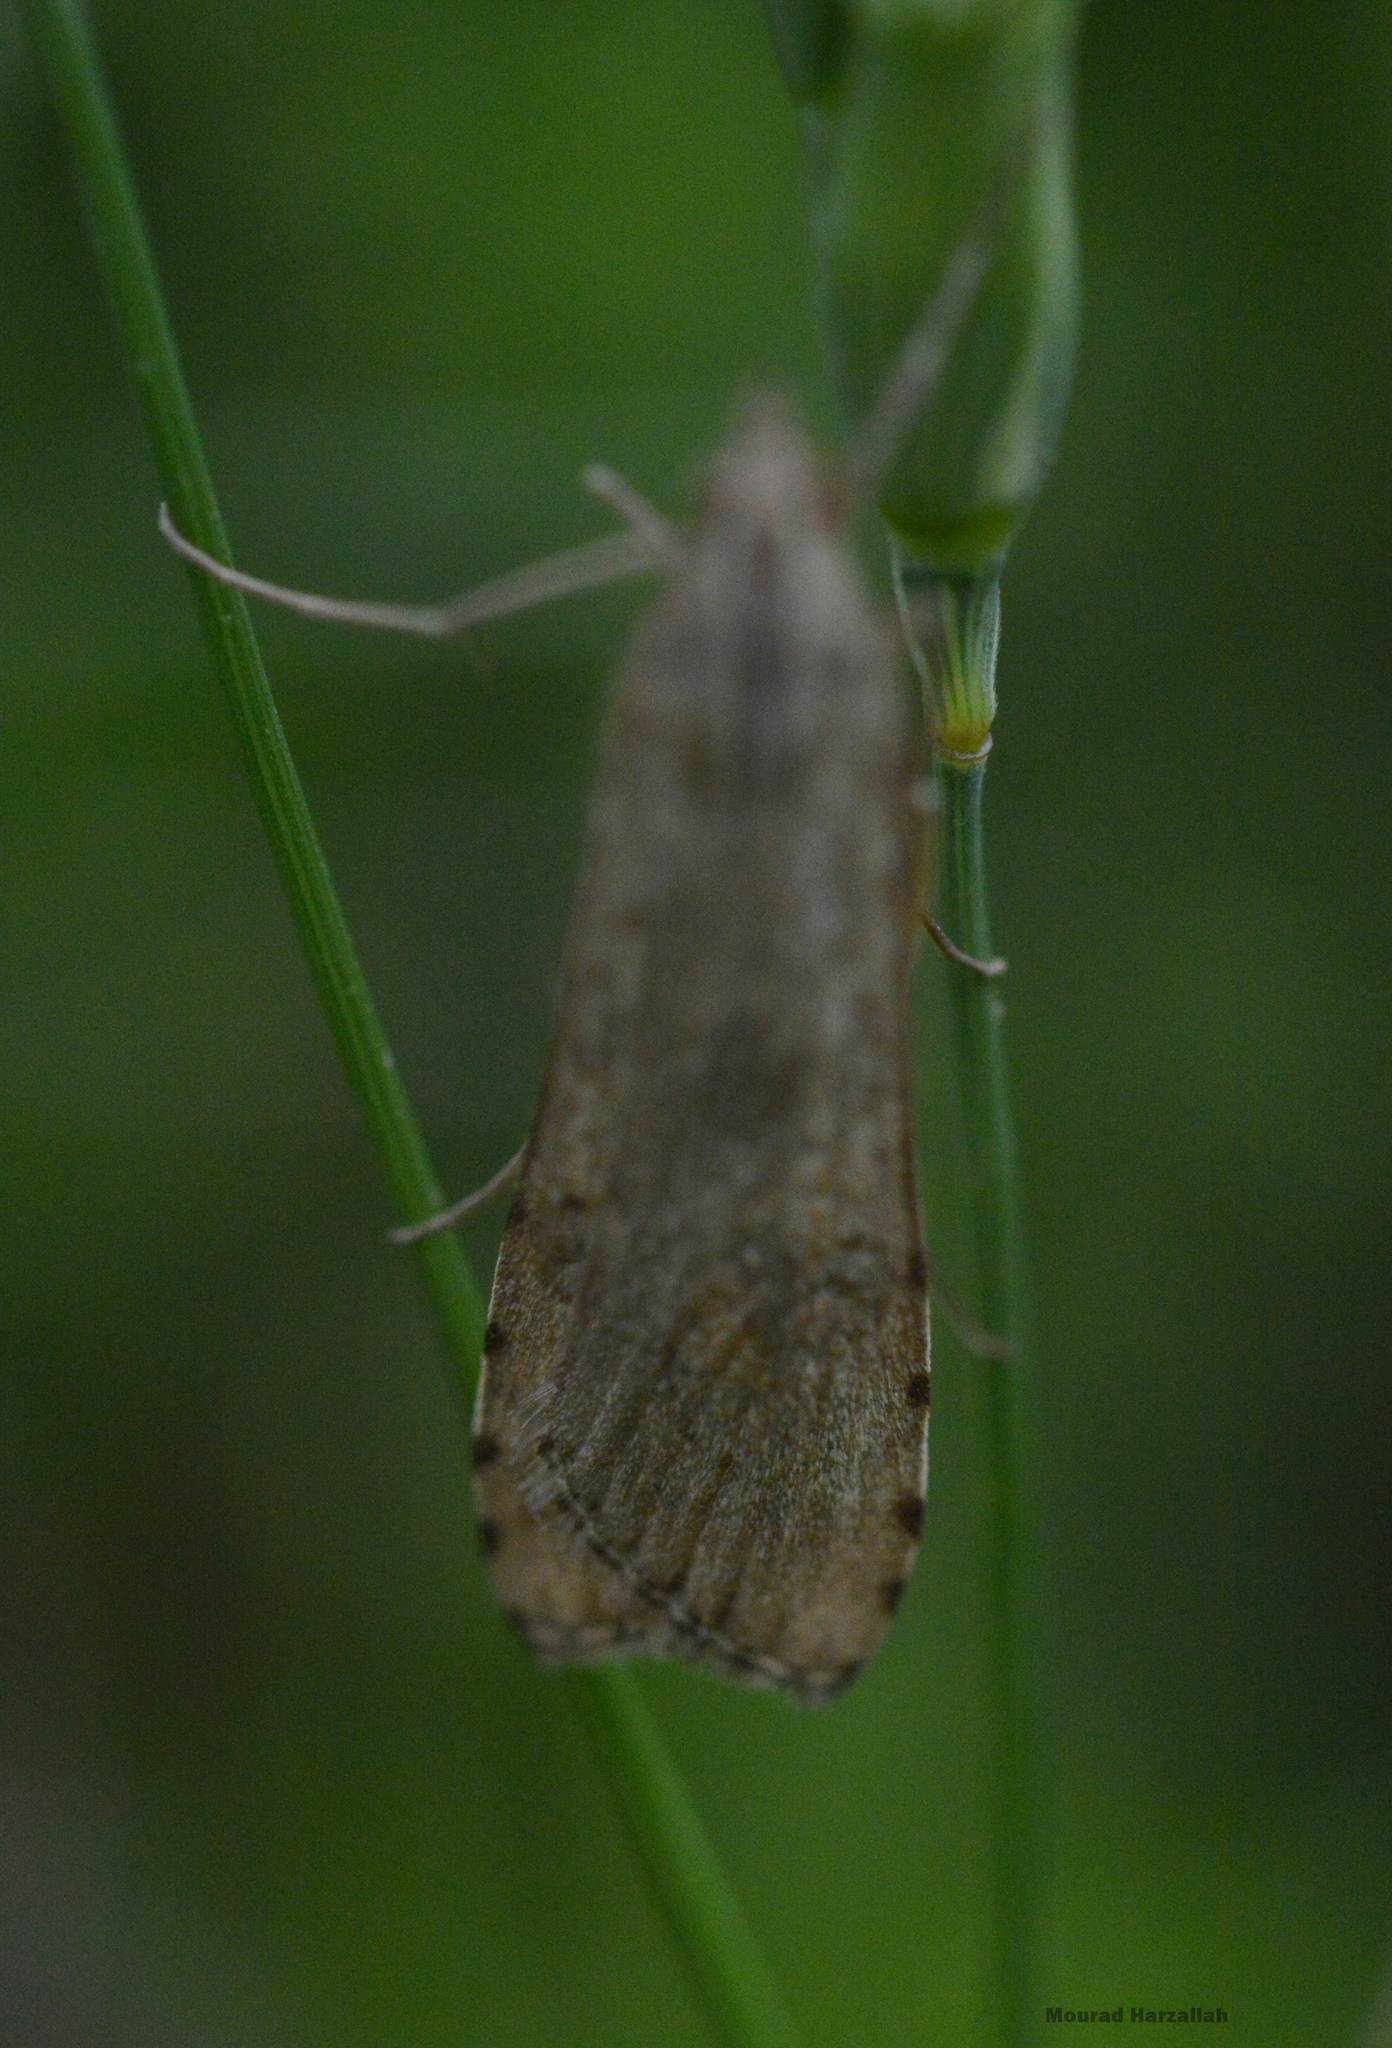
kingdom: Animalia
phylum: Arthropoda
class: Insecta
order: Lepidoptera
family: Crambidae
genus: Nomophila
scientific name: Nomophila noctuella
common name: Rush veneer
